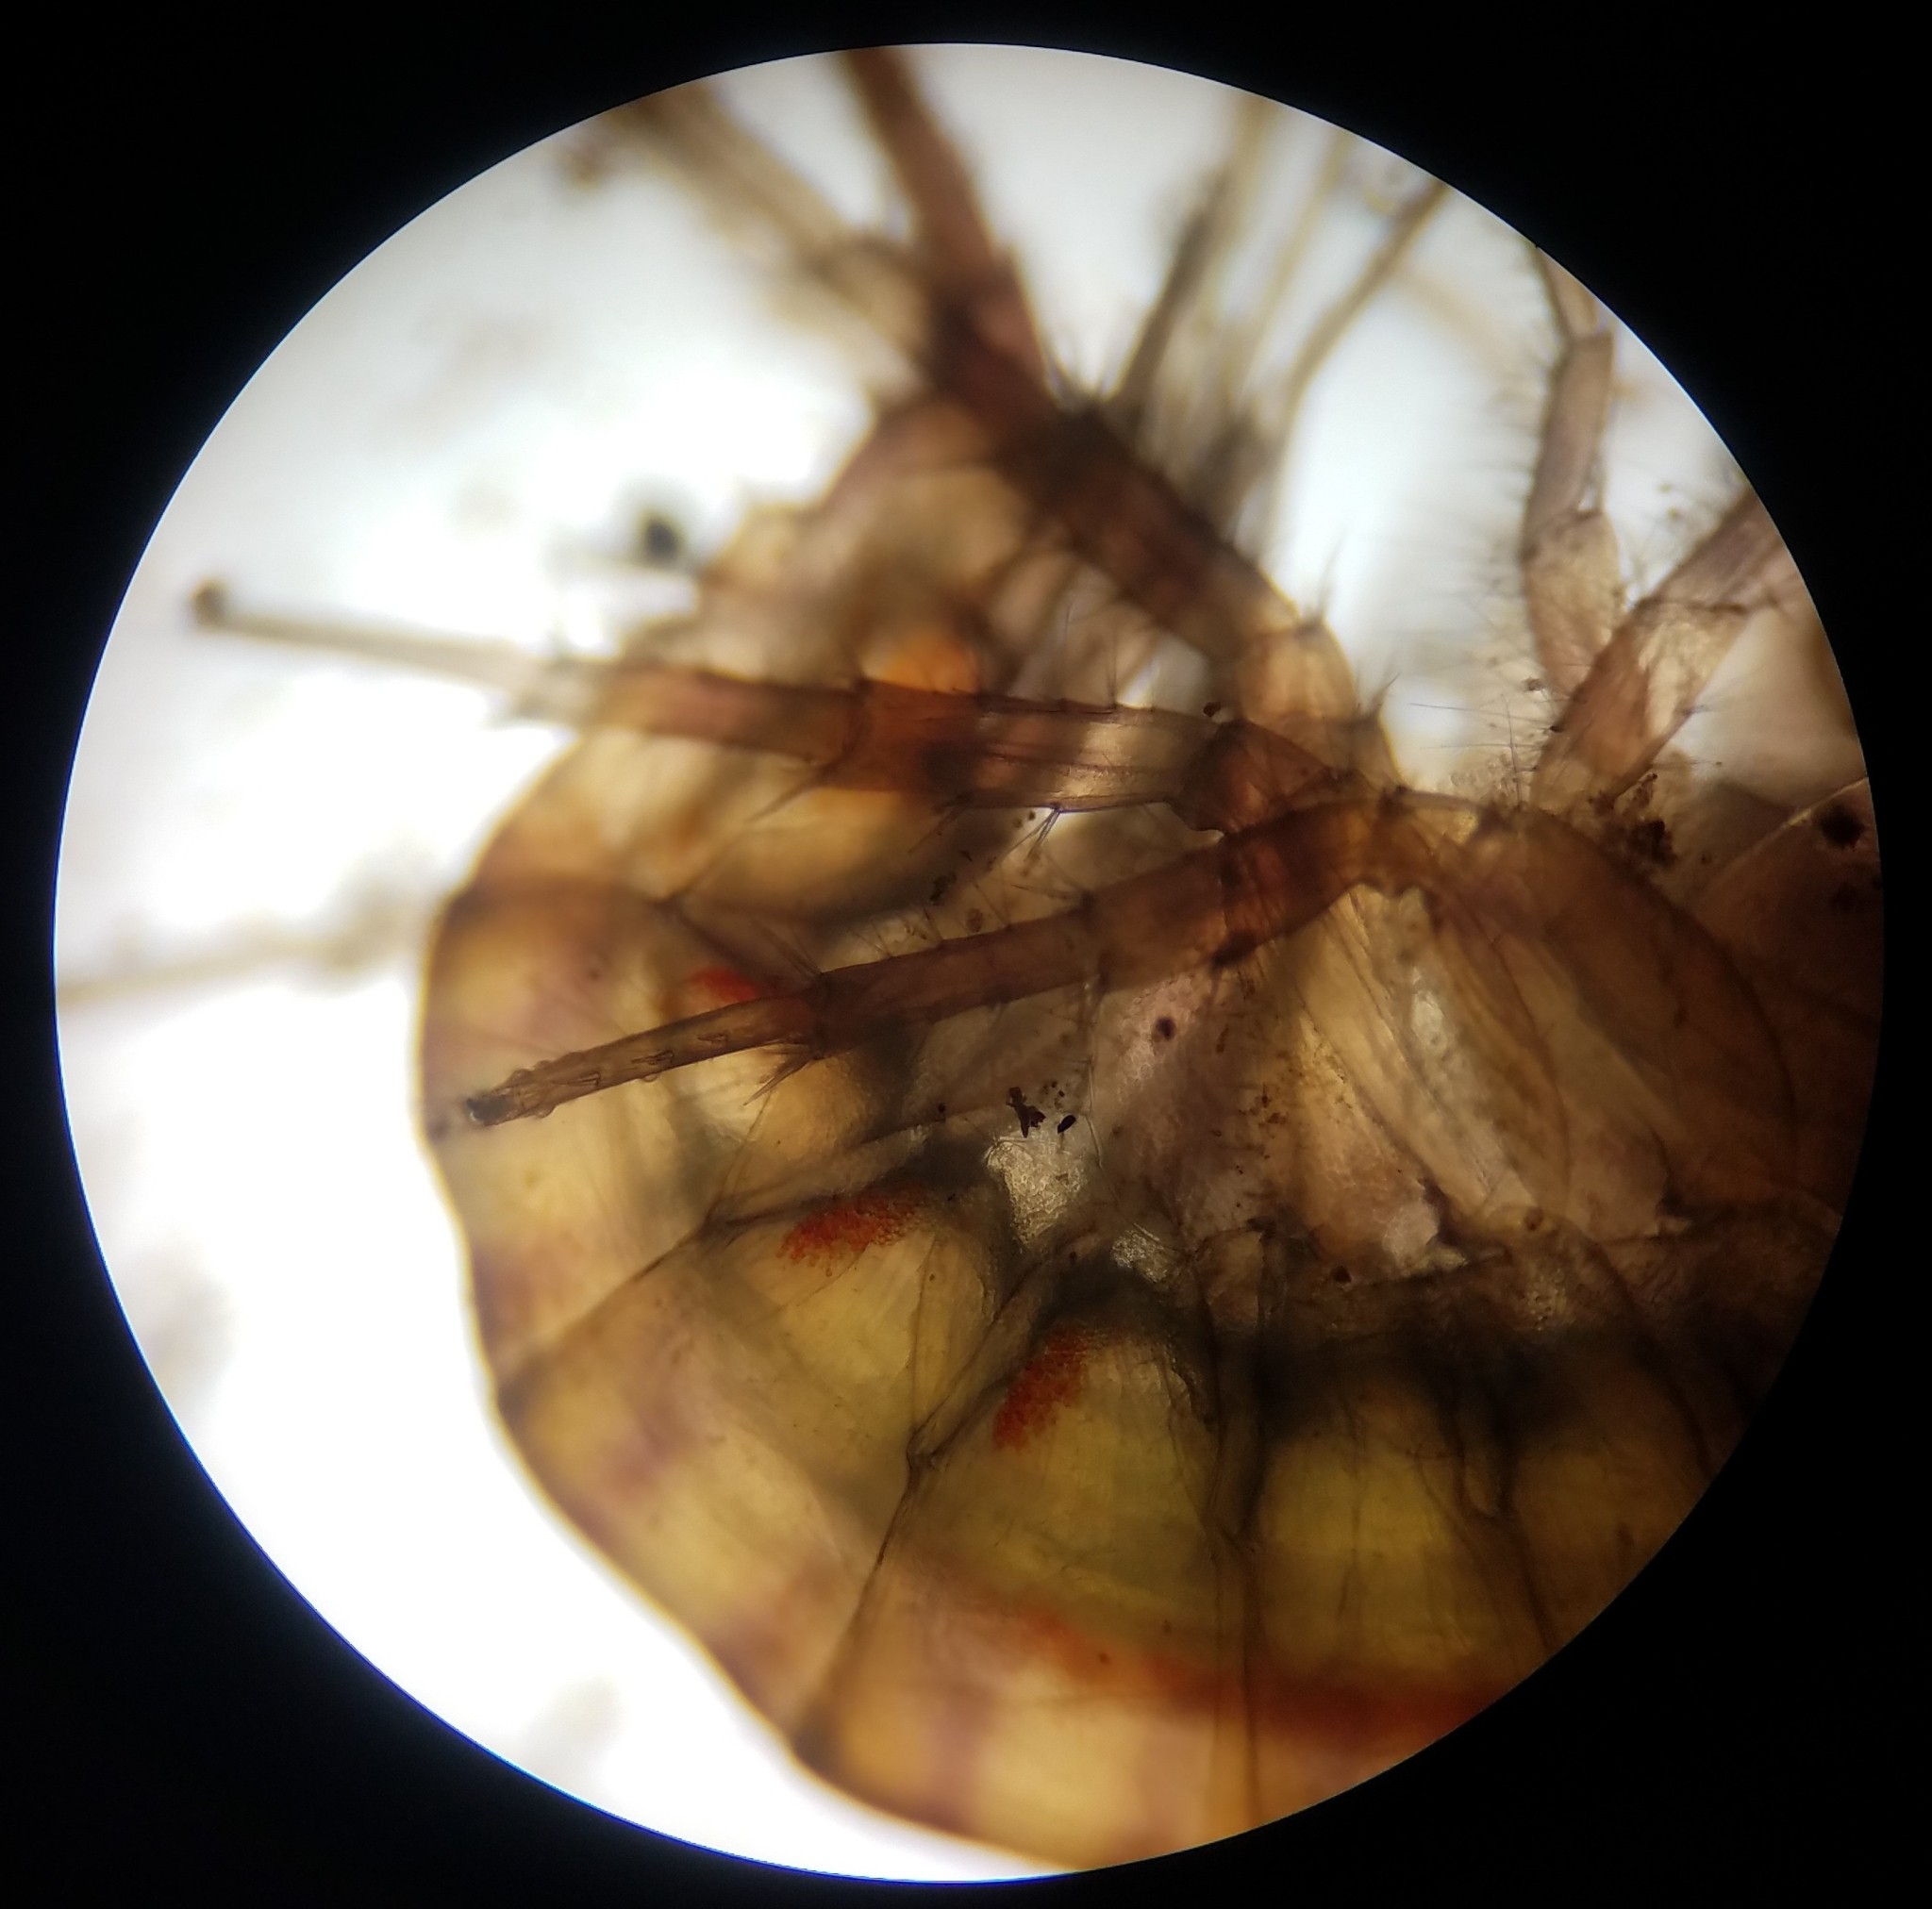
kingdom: Animalia
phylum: Arthropoda
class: Malacostraca
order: Amphipoda
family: Gammaridae
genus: Gammarus
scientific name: Gammarus fasciatus
